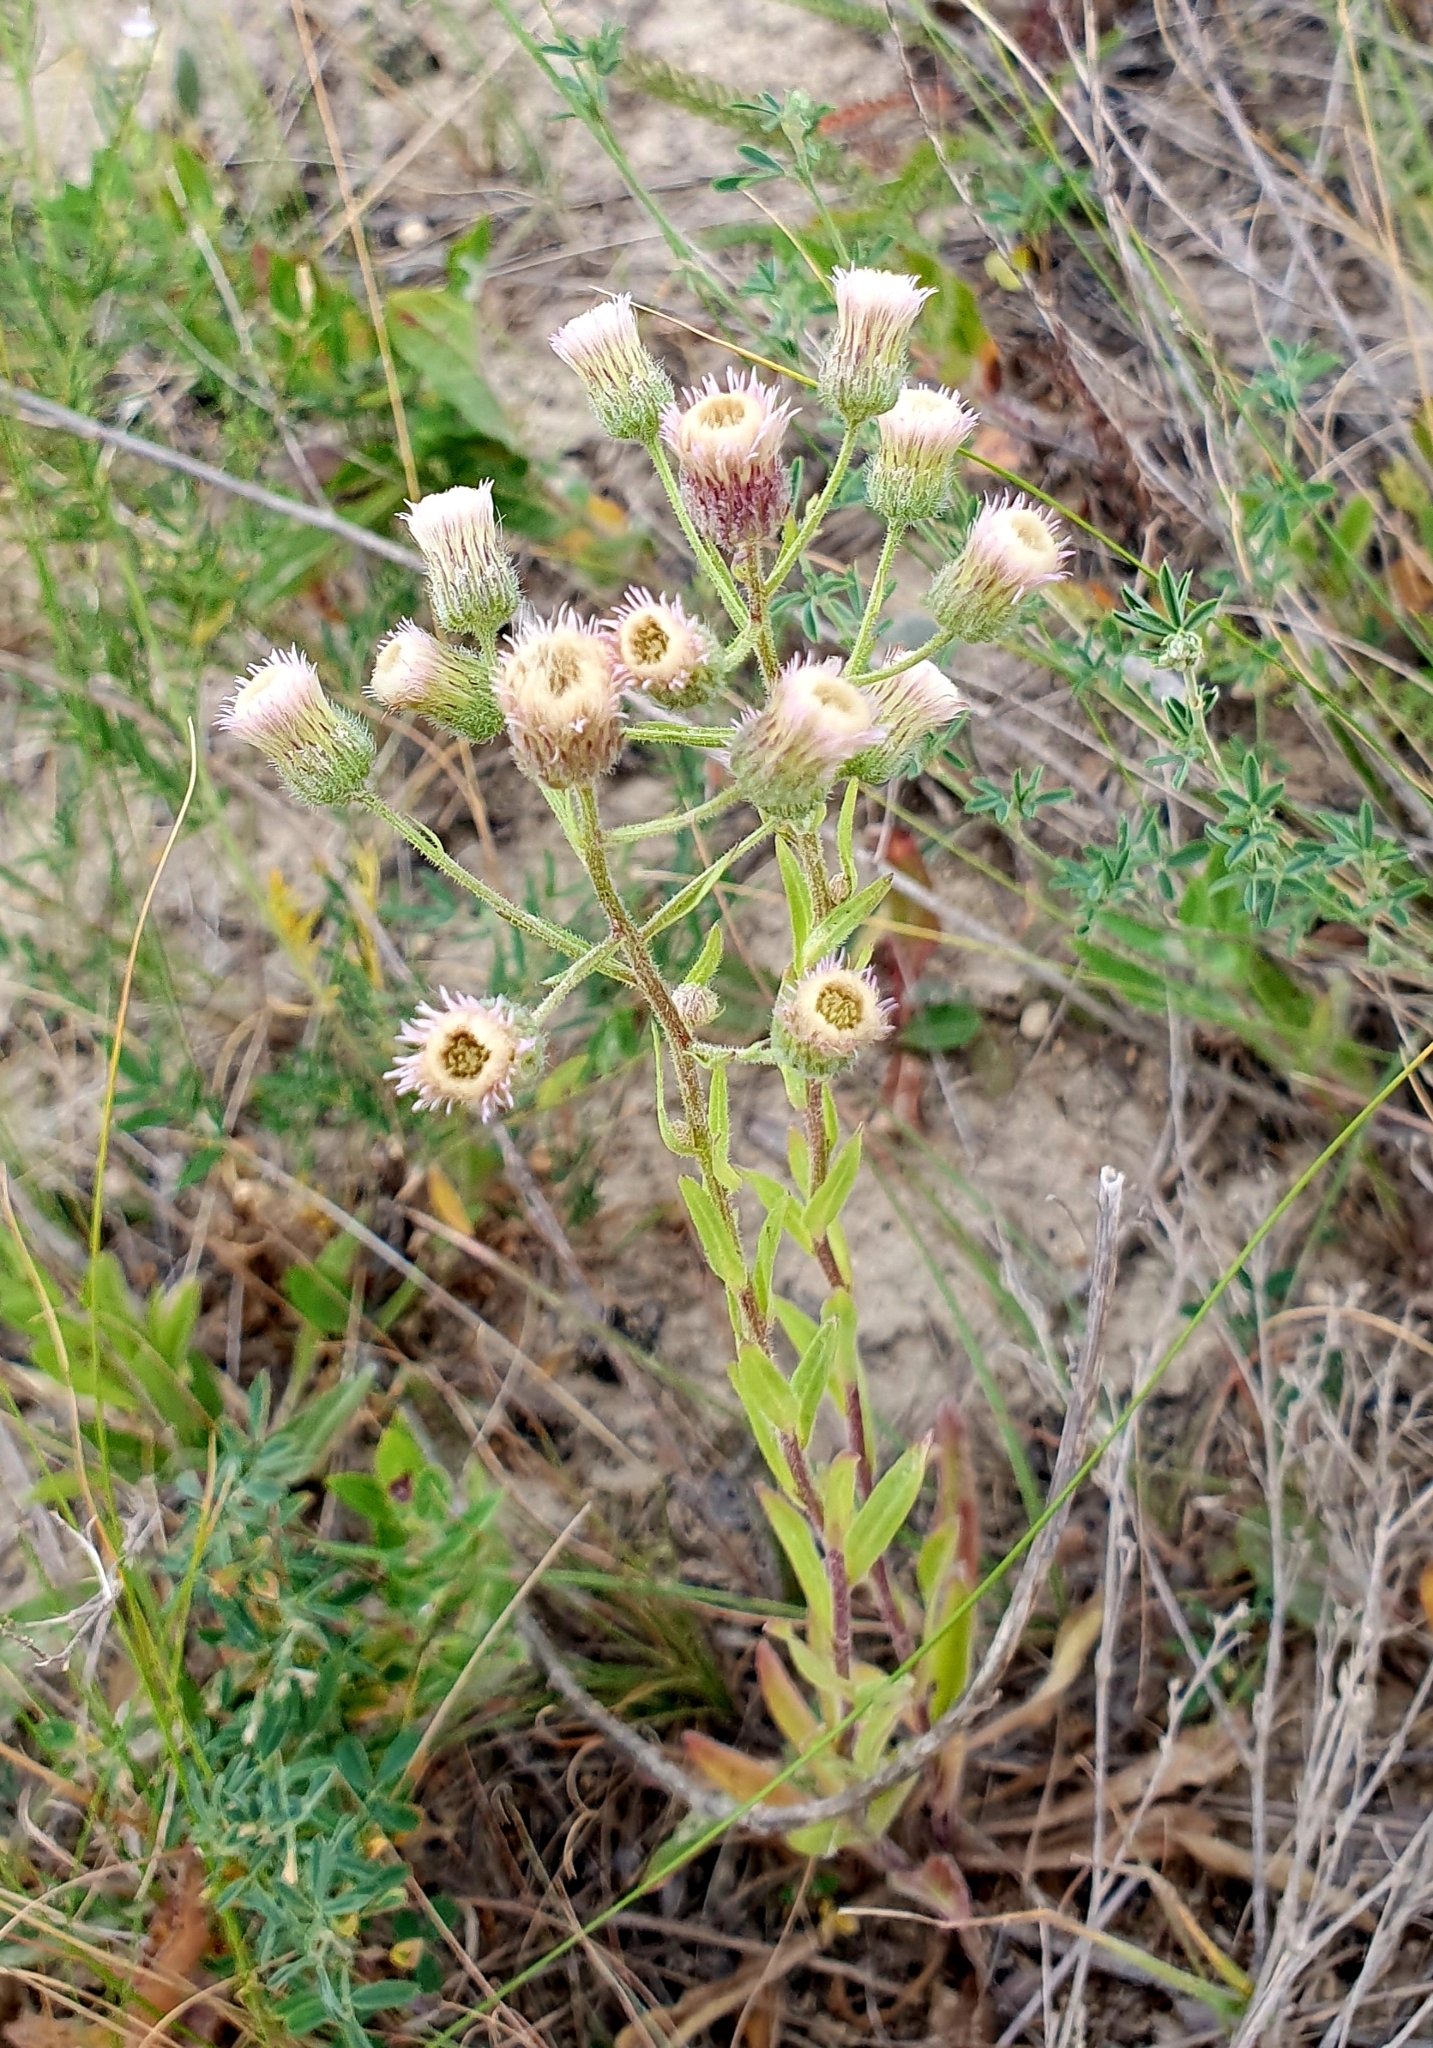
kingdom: Plantae
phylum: Tracheophyta
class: Magnoliopsida
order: Asterales
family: Asteraceae
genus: Erigeron
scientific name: Erigeron acris
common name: Blue fleabane
